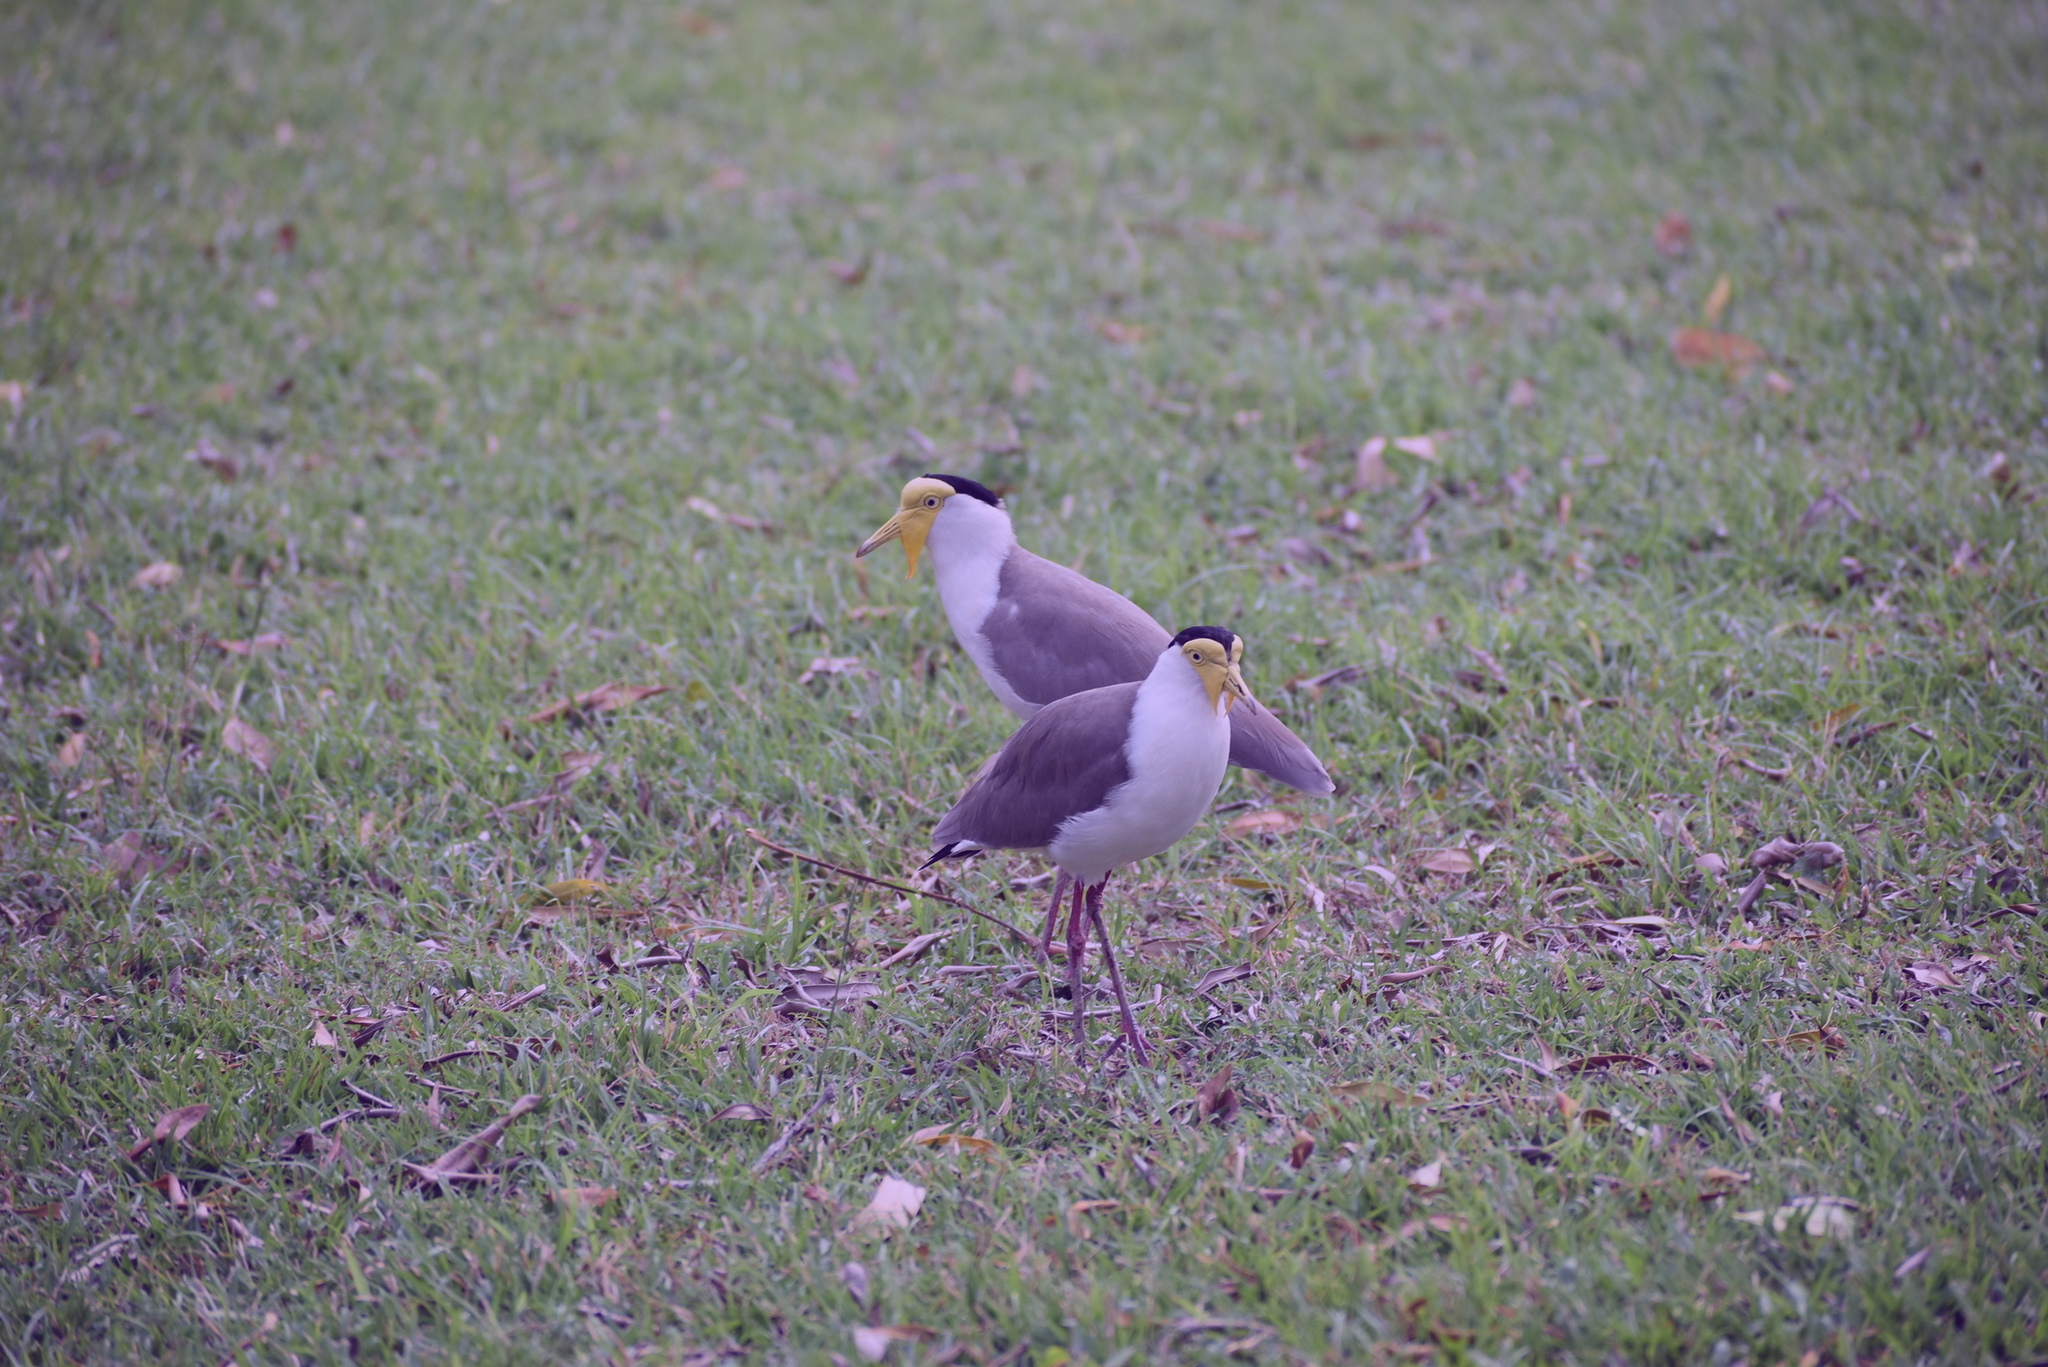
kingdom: Animalia
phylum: Chordata
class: Aves
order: Charadriiformes
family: Charadriidae
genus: Vanellus
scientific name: Vanellus miles
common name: Masked lapwing
